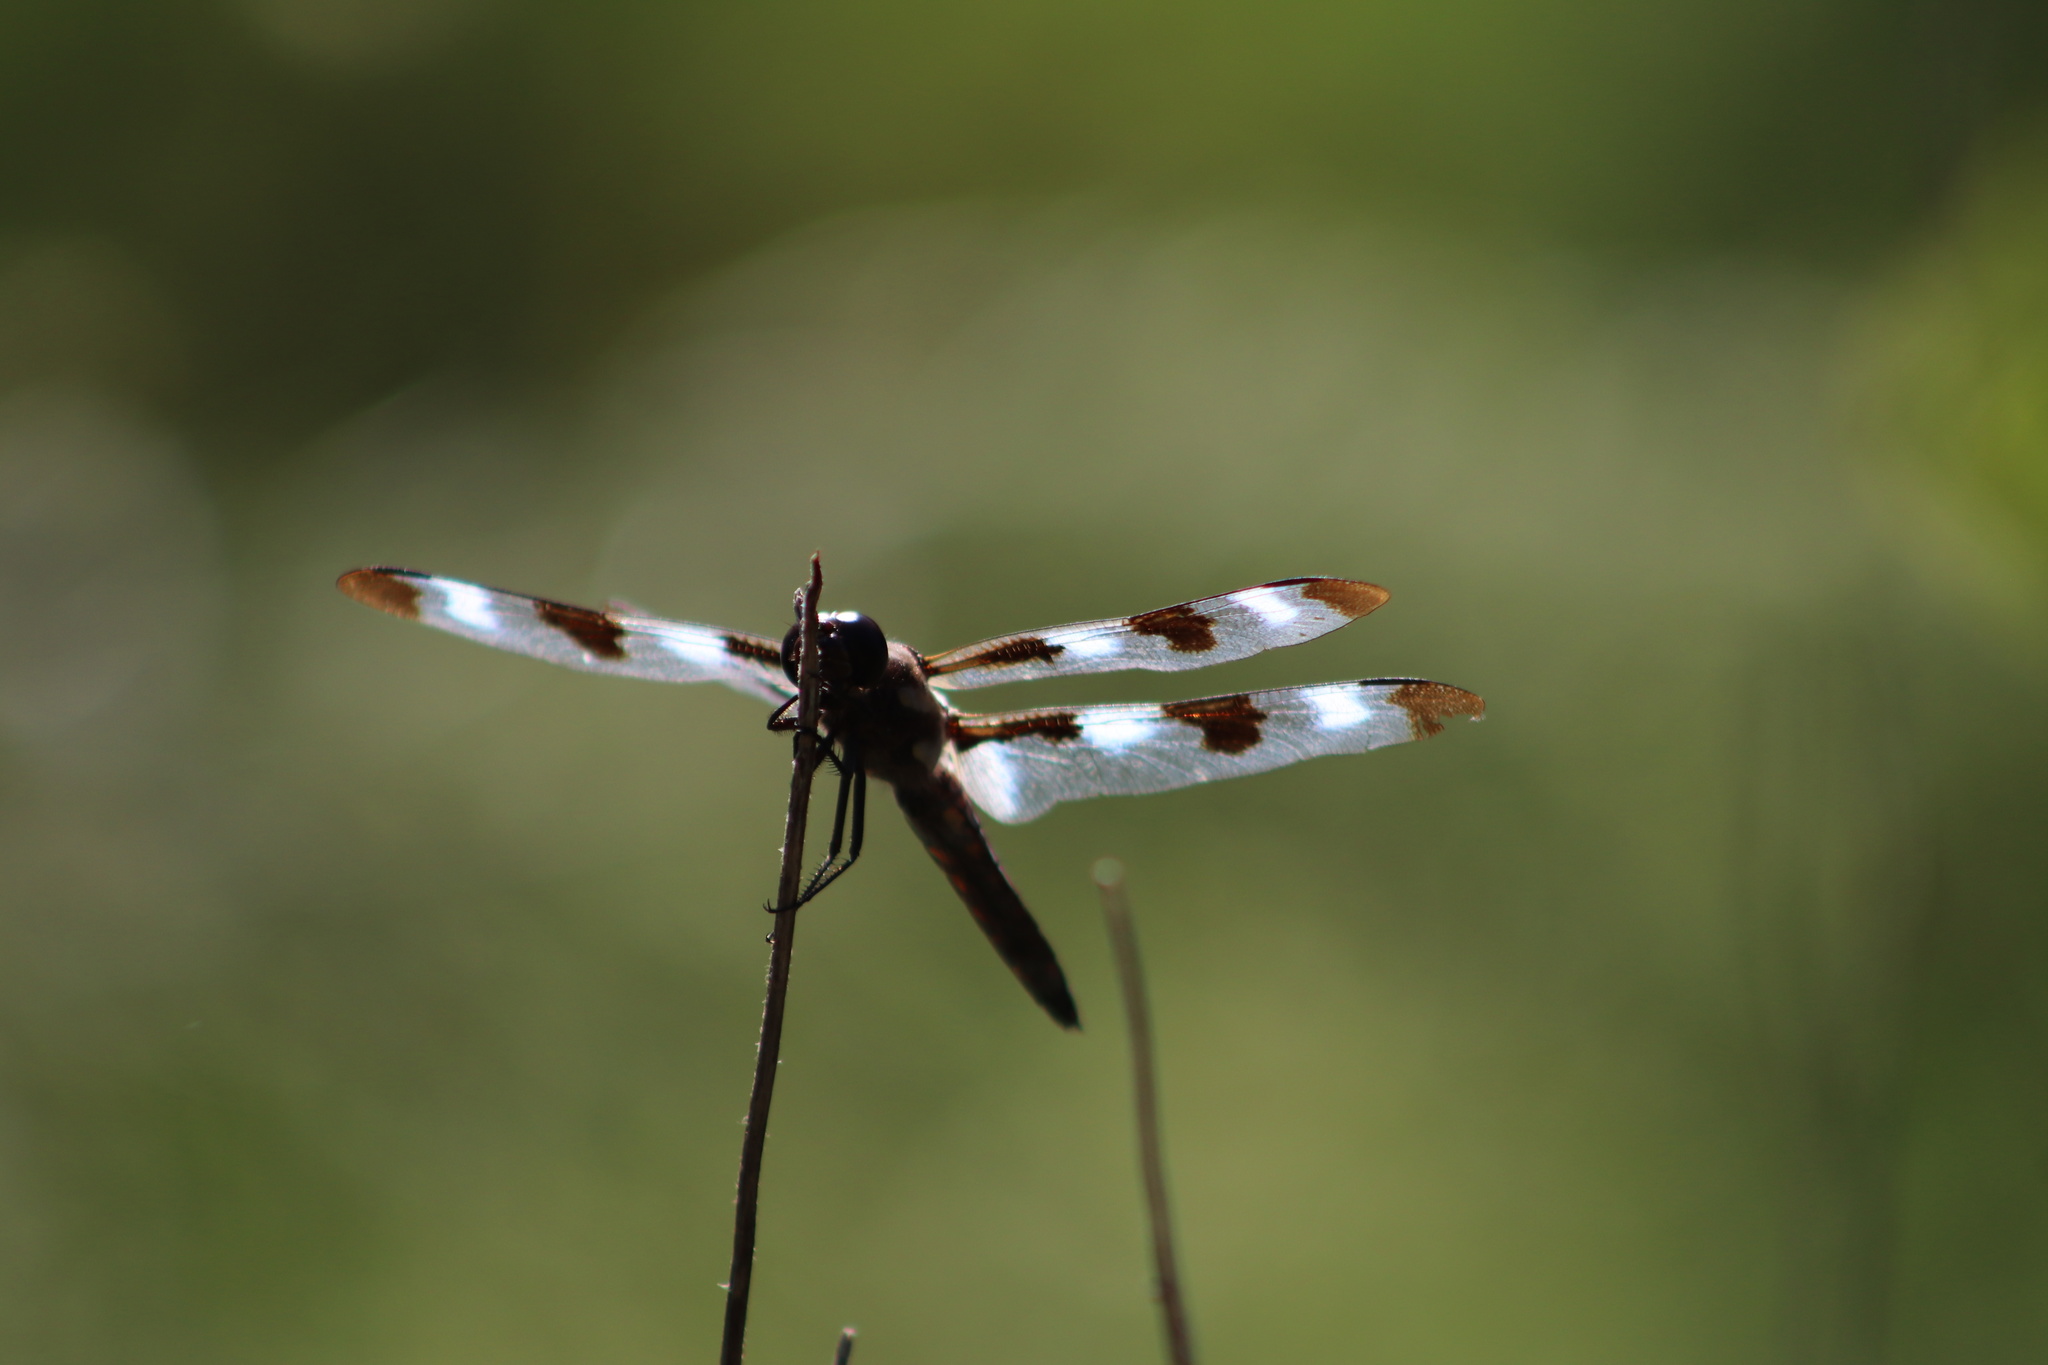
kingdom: Animalia
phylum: Arthropoda
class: Insecta
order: Odonata
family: Libellulidae
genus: Libellula
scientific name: Libellula pulchella
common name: Twelve-spotted skimmer
